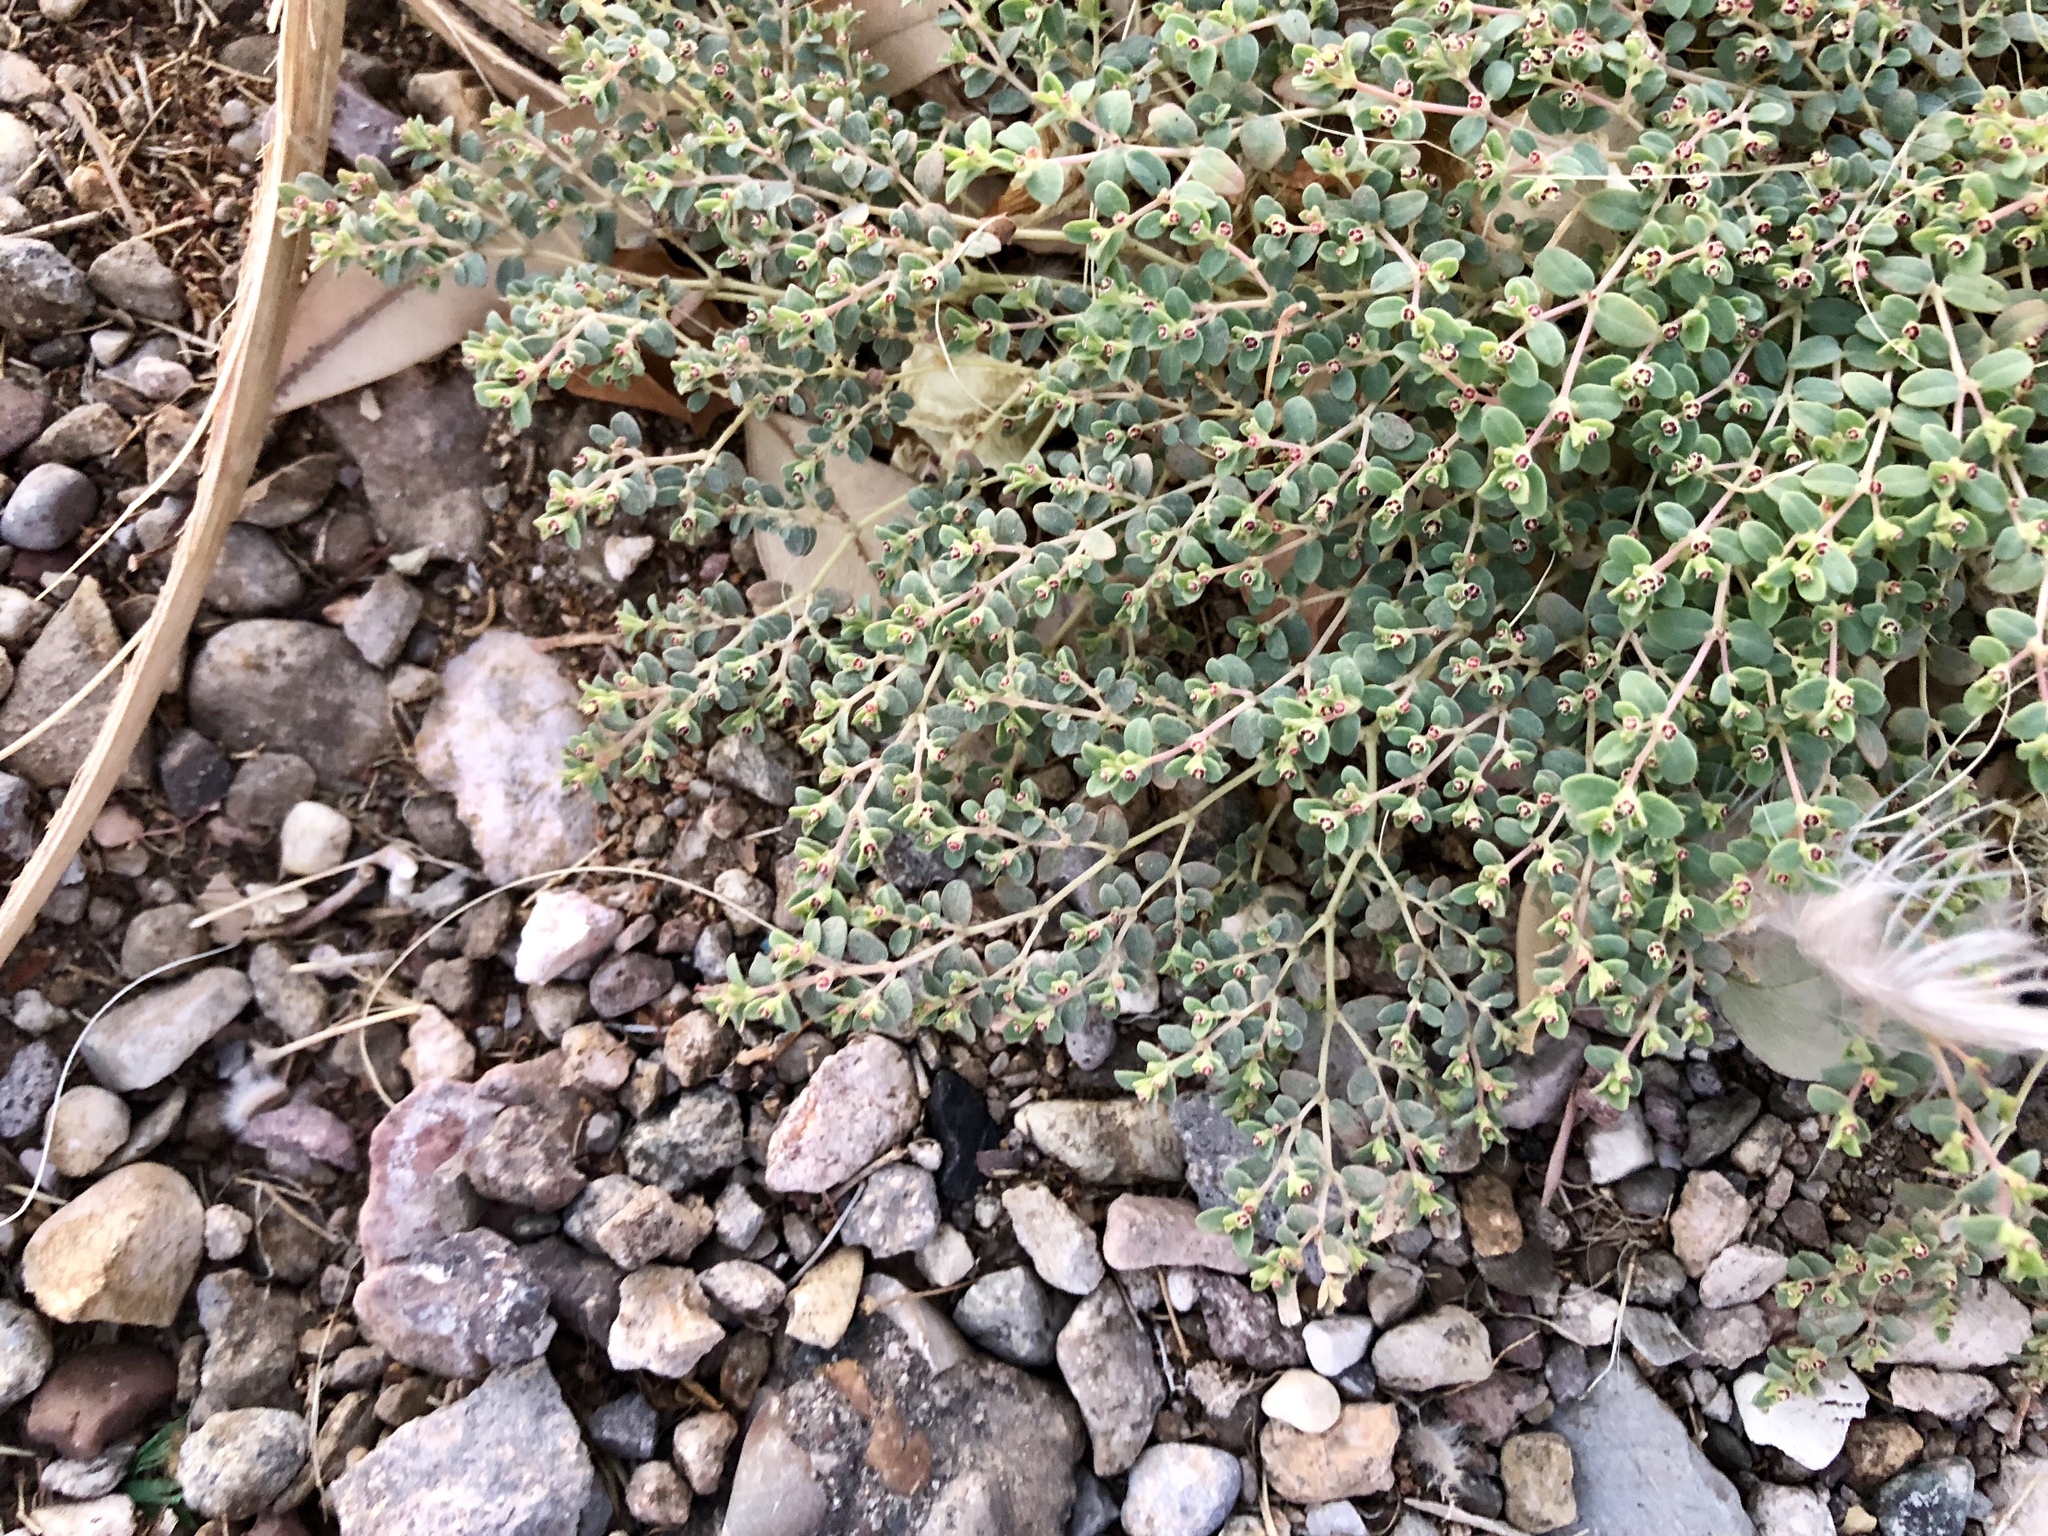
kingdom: Plantae
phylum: Tracheophyta
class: Magnoliopsida
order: Malpighiales
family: Euphorbiaceae
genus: Euphorbia
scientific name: Euphorbia polycarpa
